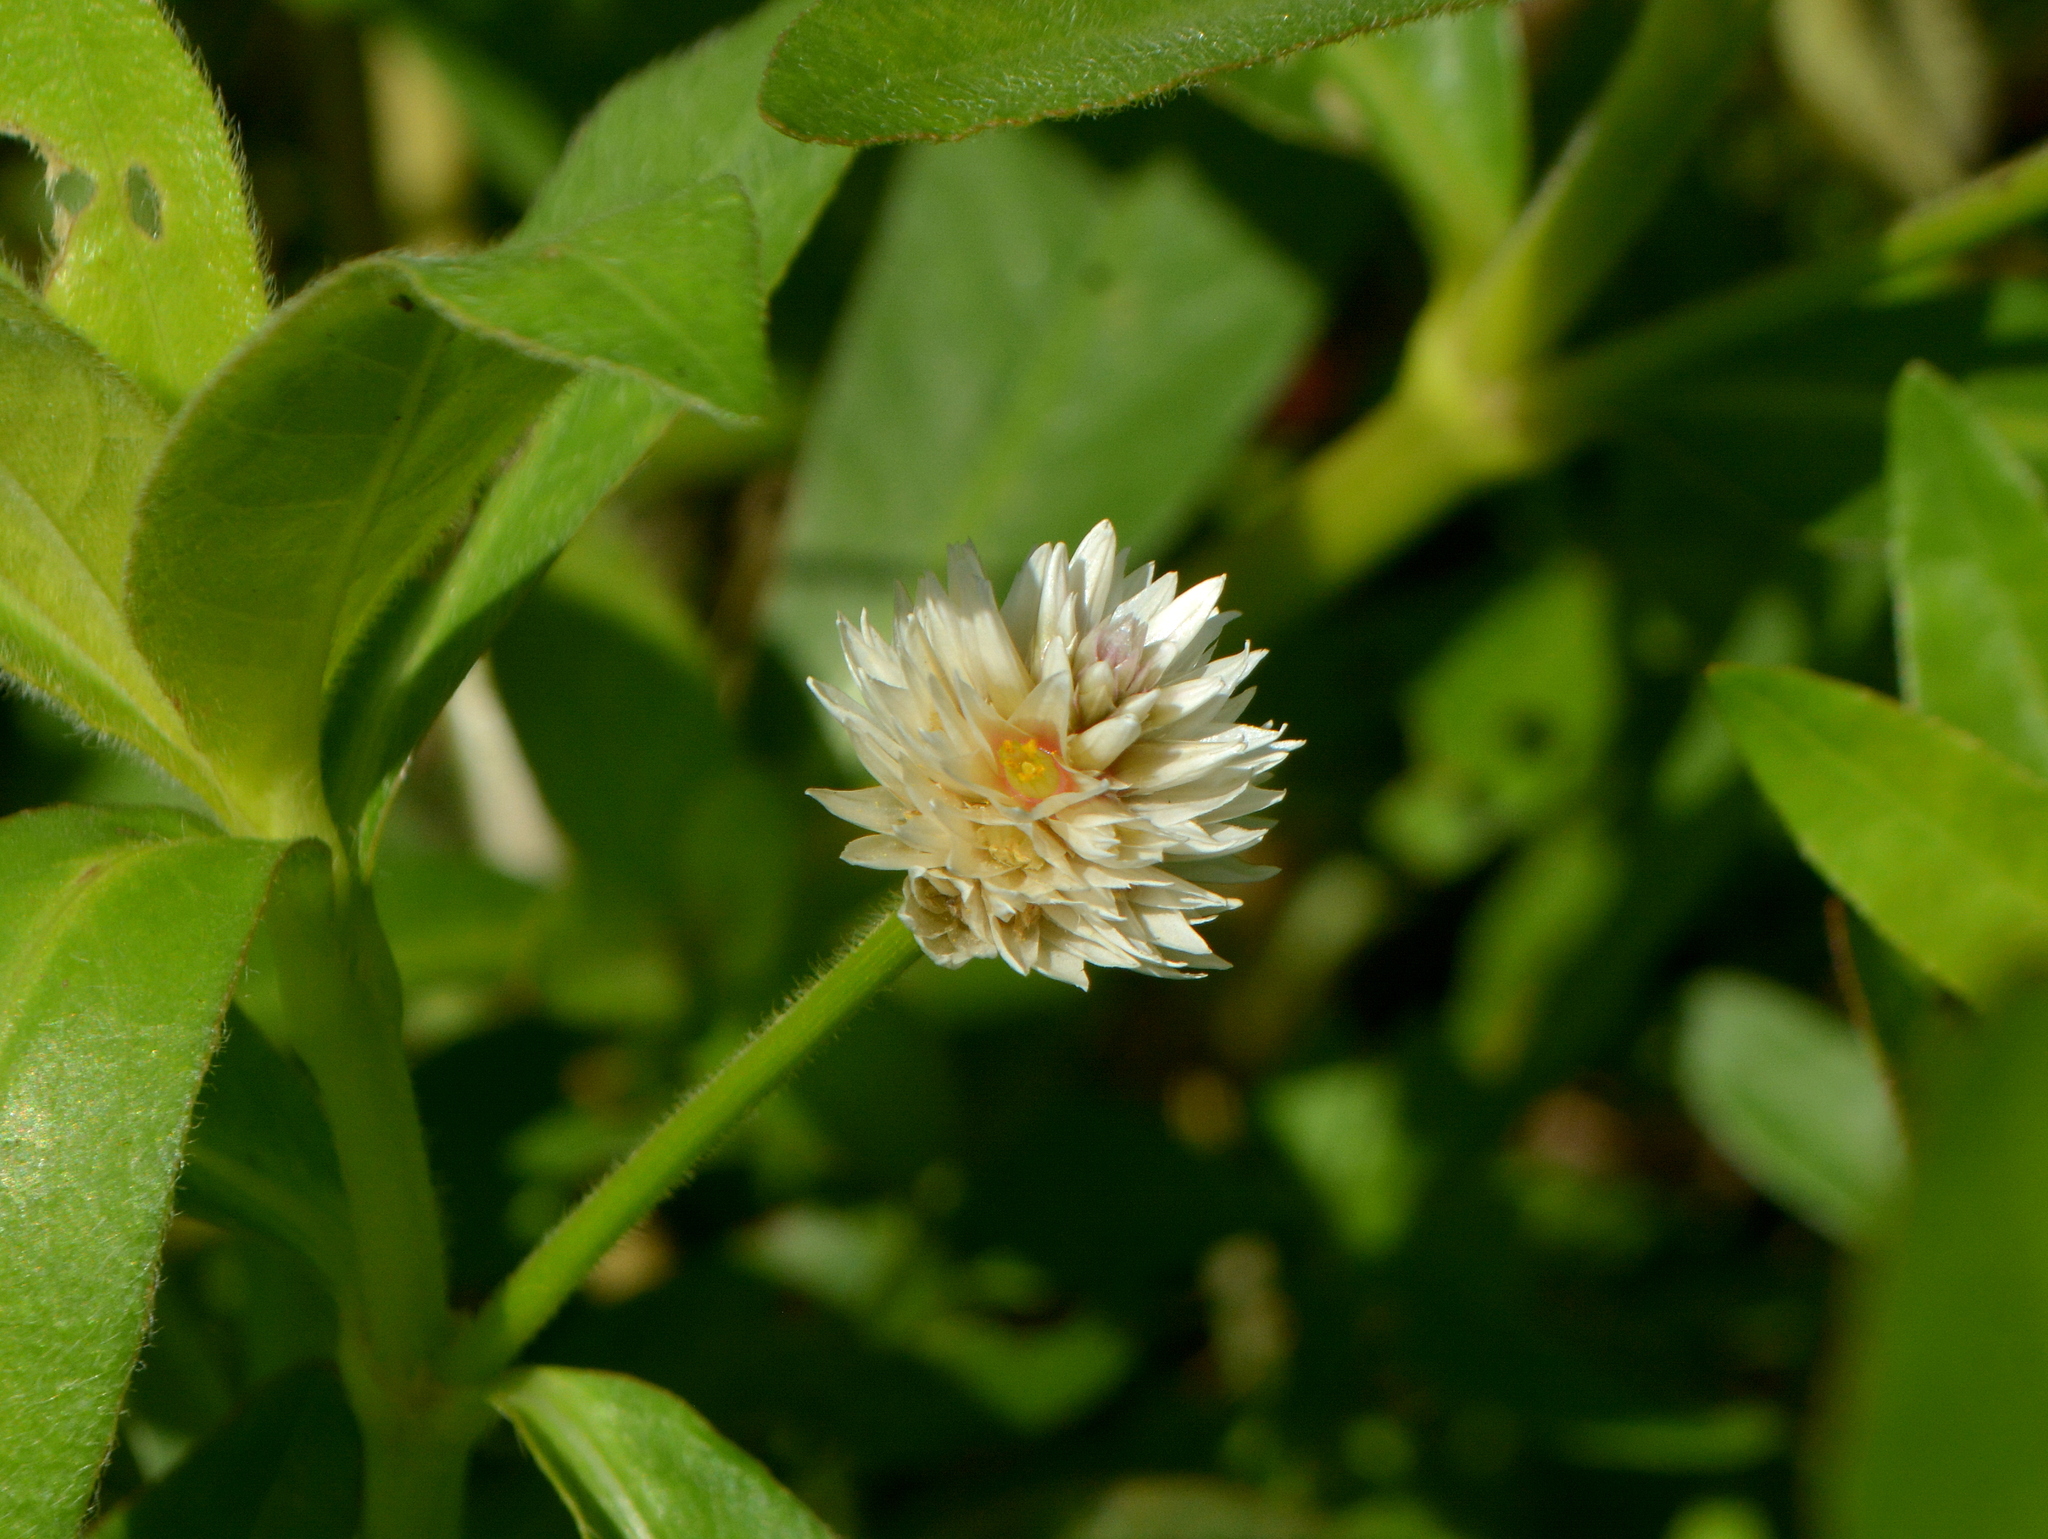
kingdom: Plantae
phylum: Tracheophyta
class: Magnoliopsida
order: Caryophyllales
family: Amaranthaceae
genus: Alternanthera
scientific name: Alternanthera philoxeroides
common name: Alligatorweed
